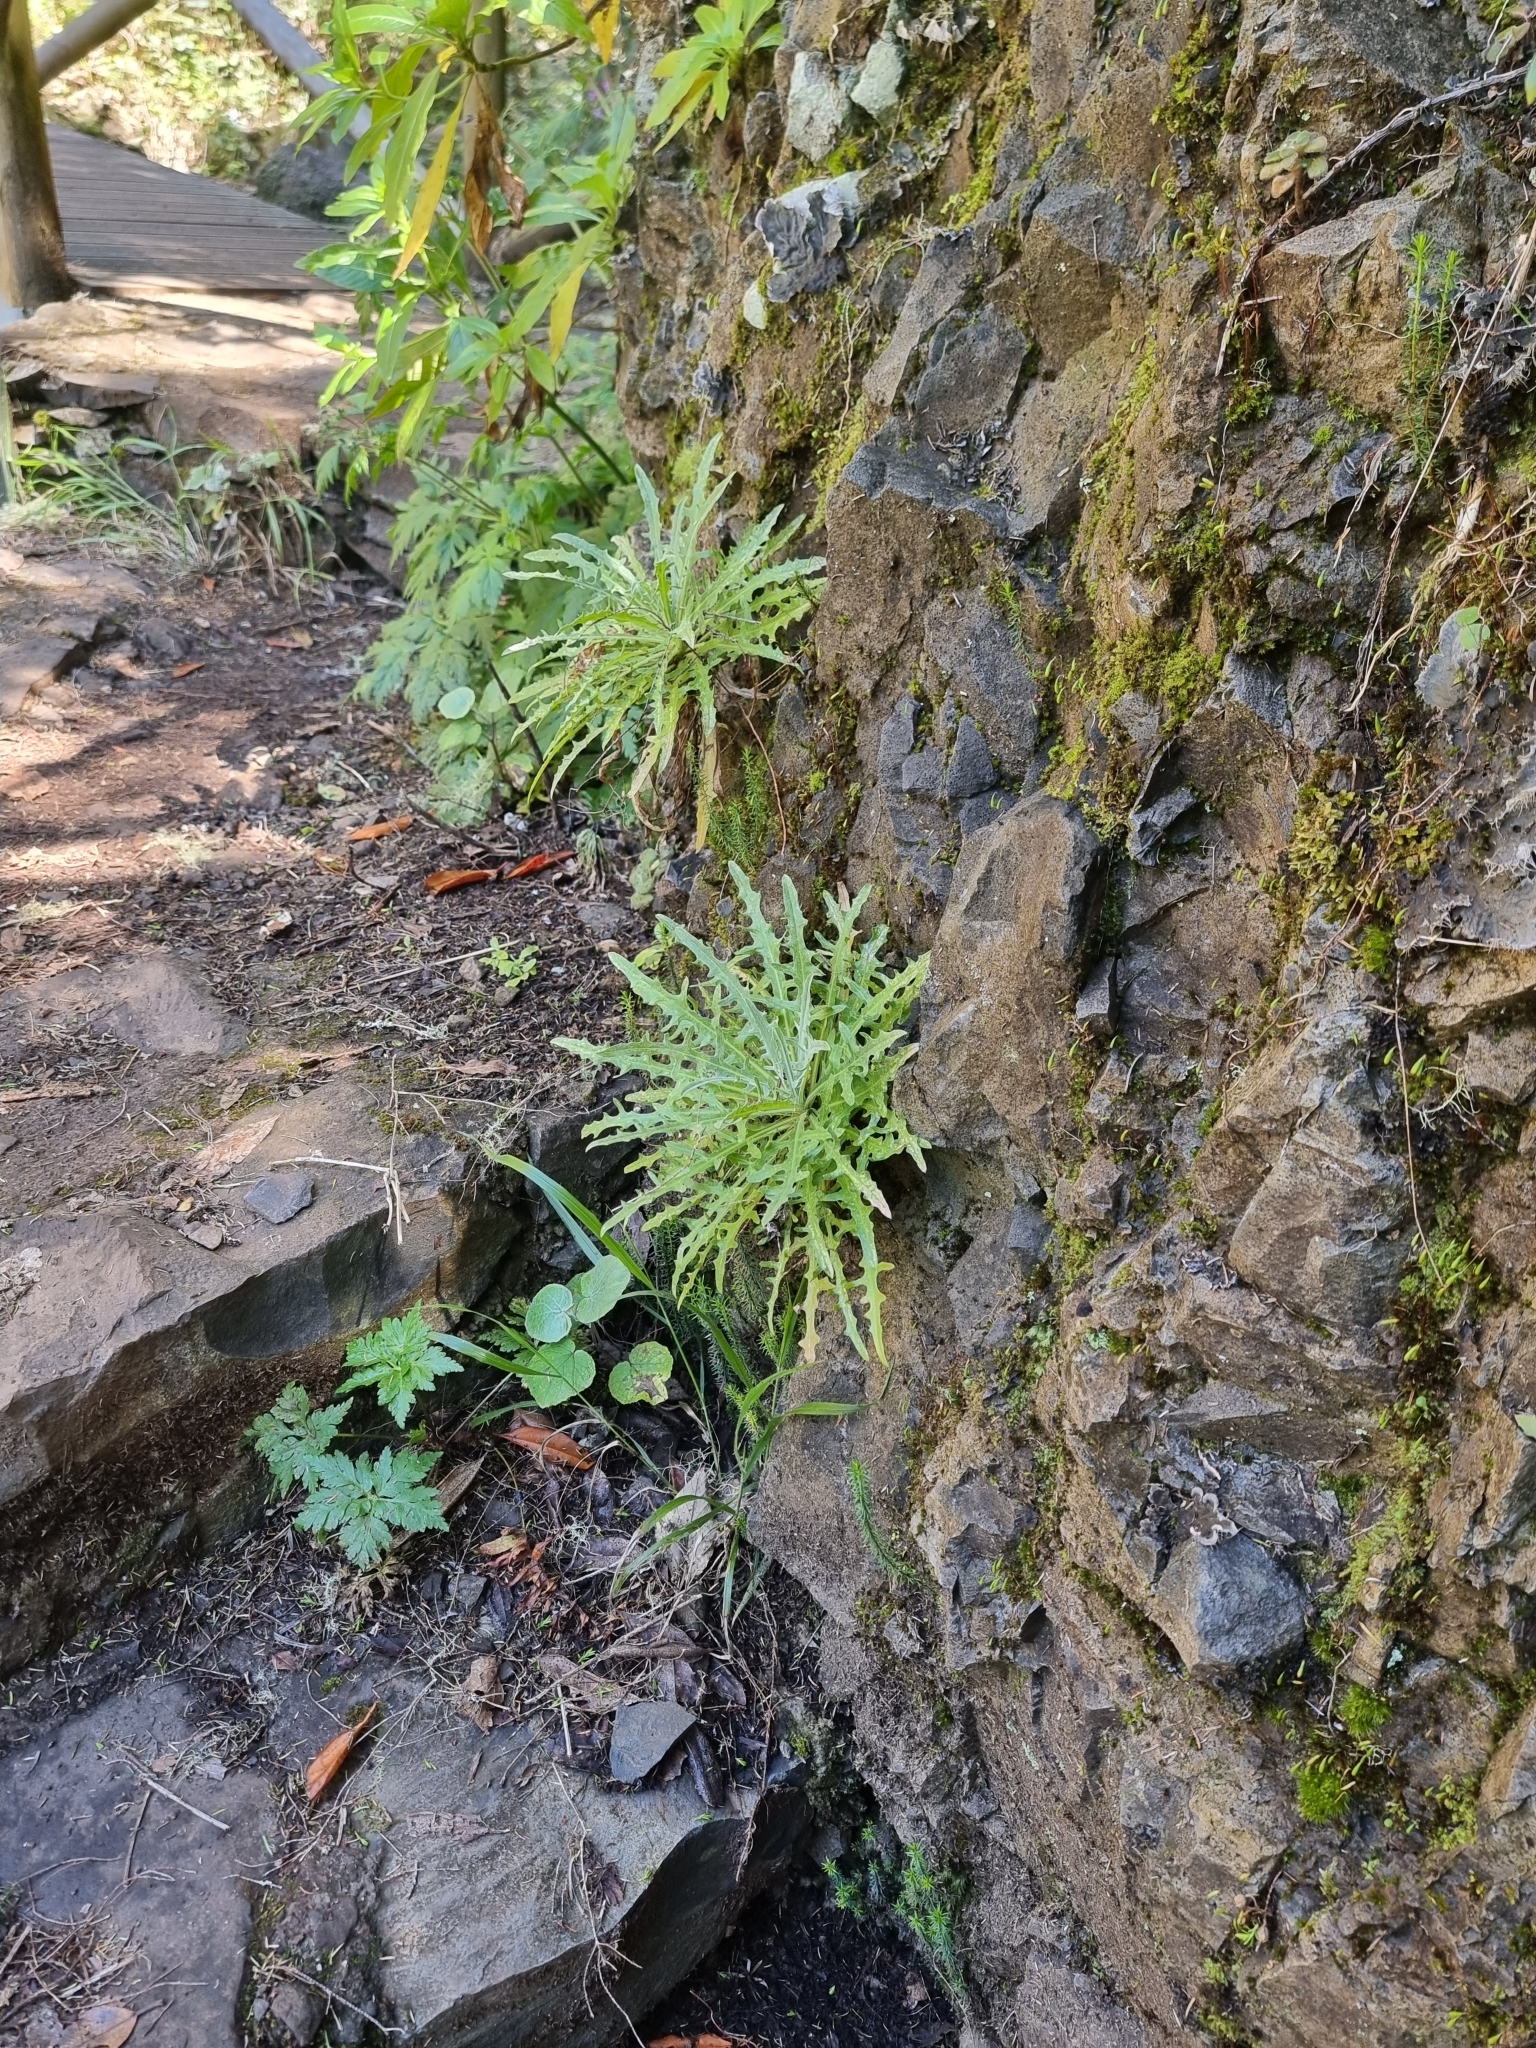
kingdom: Plantae
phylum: Tracheophyta
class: Magnoliopsida
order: Asterales
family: Asteraceae
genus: Andryala
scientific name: Andryala glandulosa
